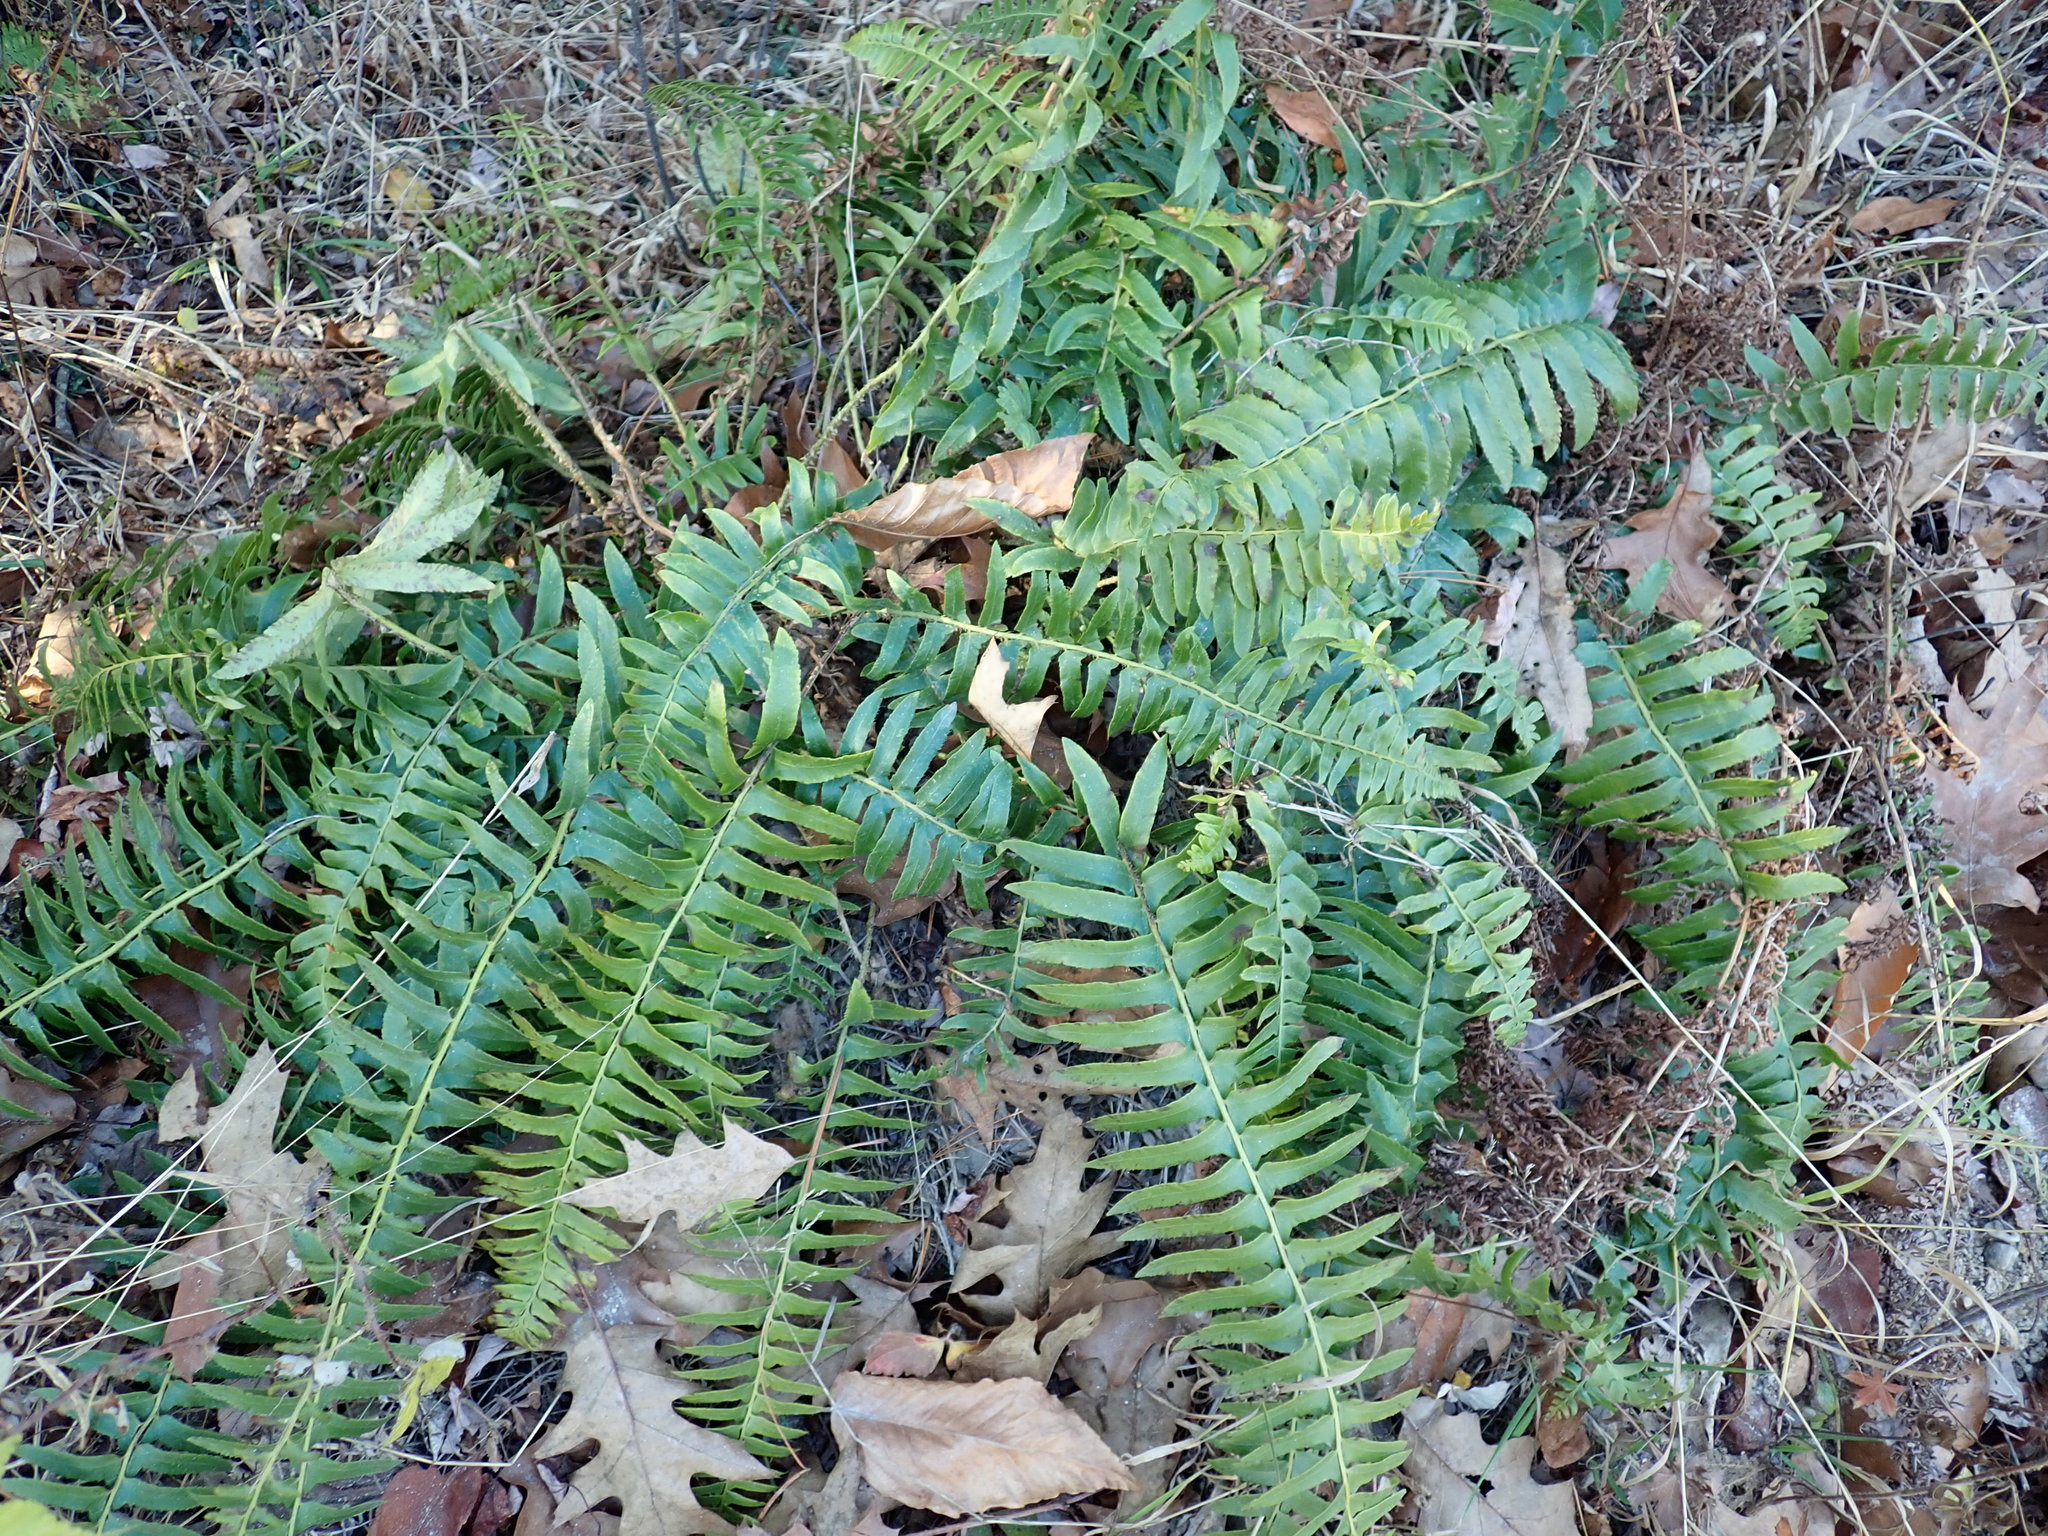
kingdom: Plantae
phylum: Tracheophyta
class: Polypodiopsida
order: Polypodiales
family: Dryopteridaceae
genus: Polystichum
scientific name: Polystichum acrostichoides
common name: Christmas fern
